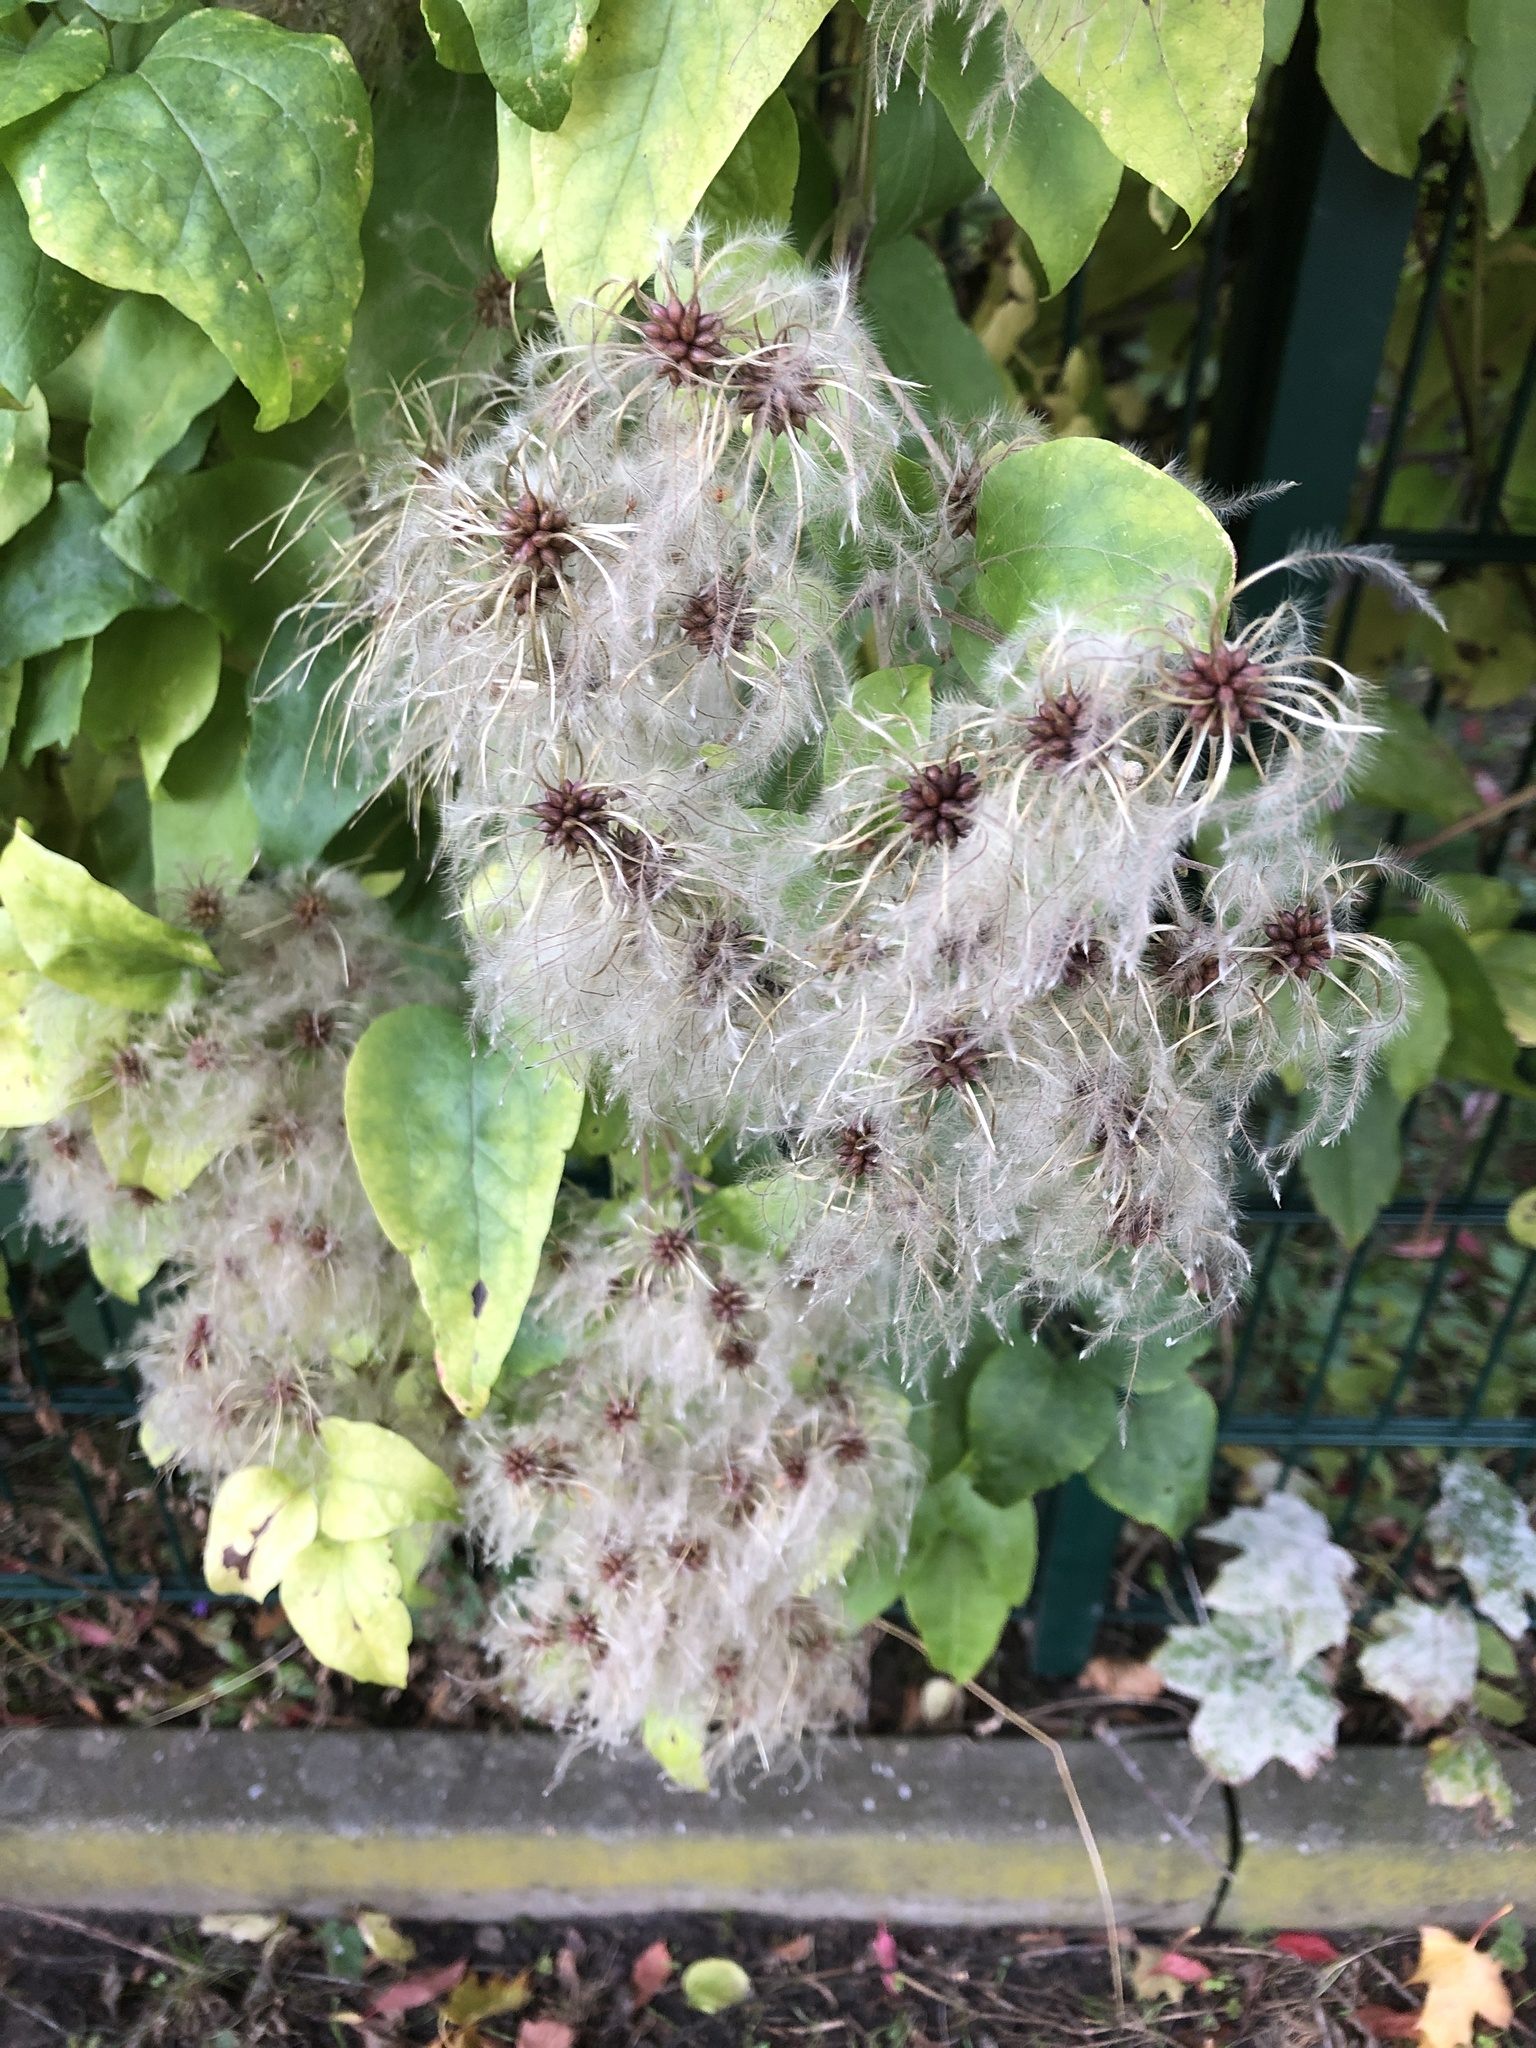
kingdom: Plantae
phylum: Tracheophyta
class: Magnoliopsida
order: Ranunculales
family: Ranunculaceae
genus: Clematis
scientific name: Clematis vitalba
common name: Evergreen clematis
